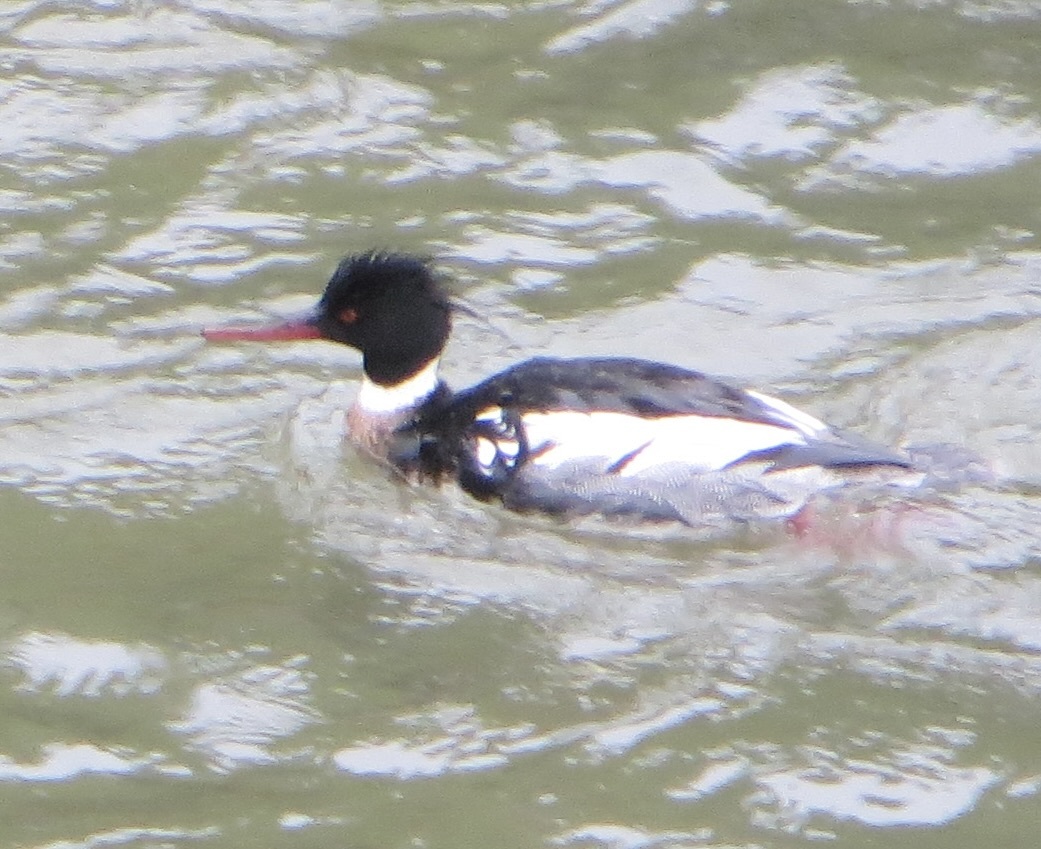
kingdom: Animalia
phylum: Chordata
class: Aves
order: Anseriformes
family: Anatidae
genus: Mergus
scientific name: Mergus serrator
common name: Red-breasted merganser
